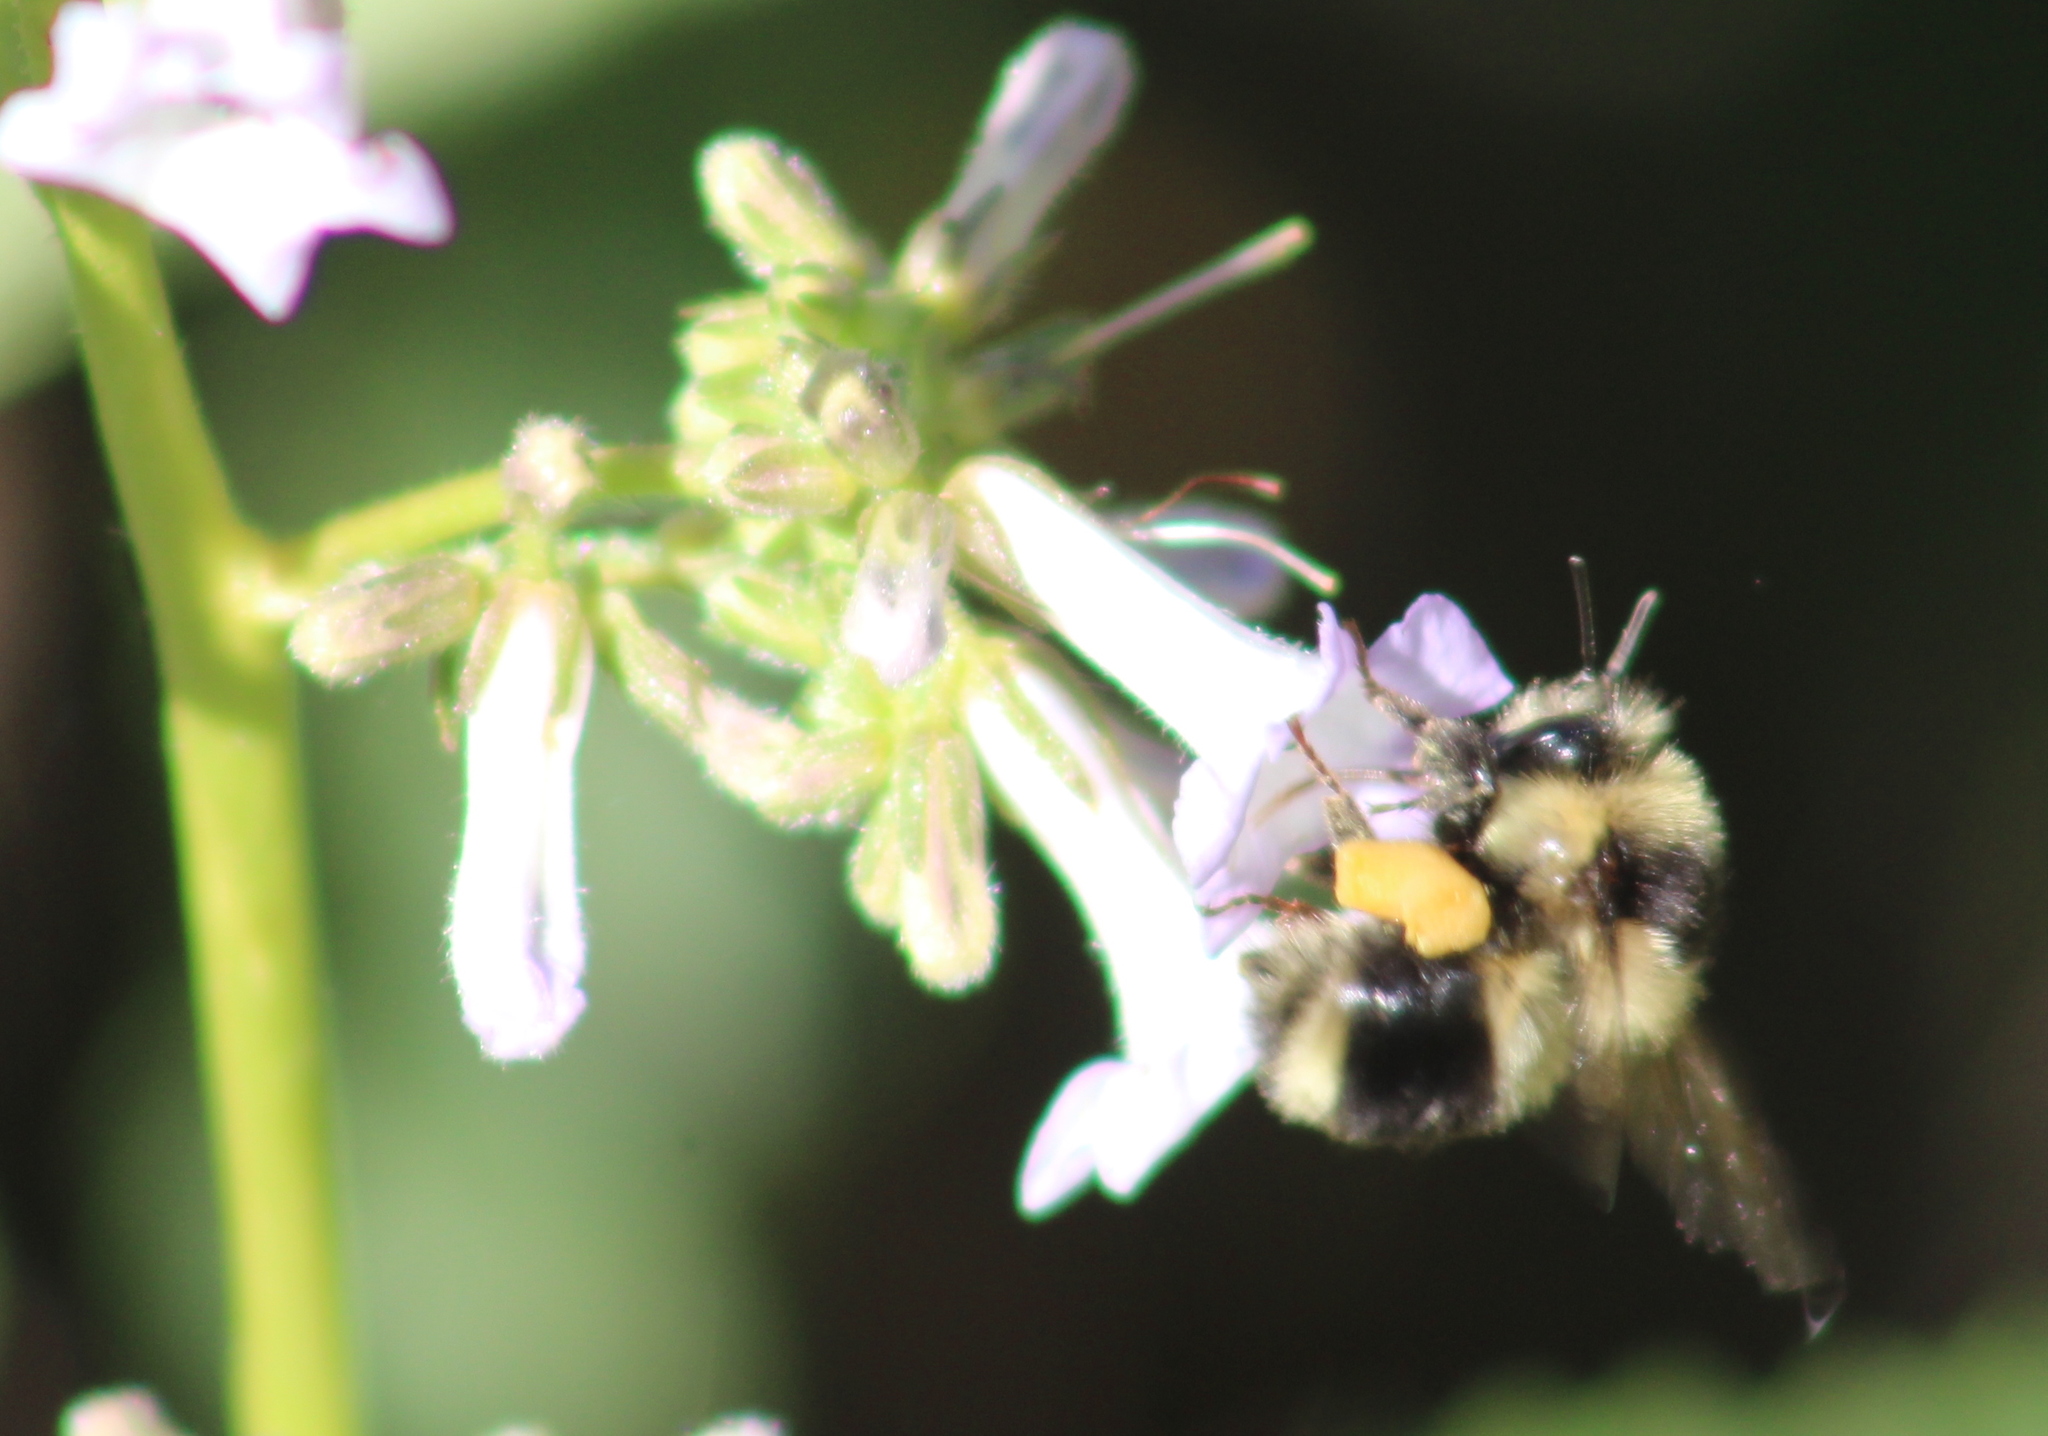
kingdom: Animalia
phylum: Arthropoda
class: Insecta
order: Hymenoptera
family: Apidae
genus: Bombus
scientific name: Bombus melanopygus
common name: Black tail bumble bee
